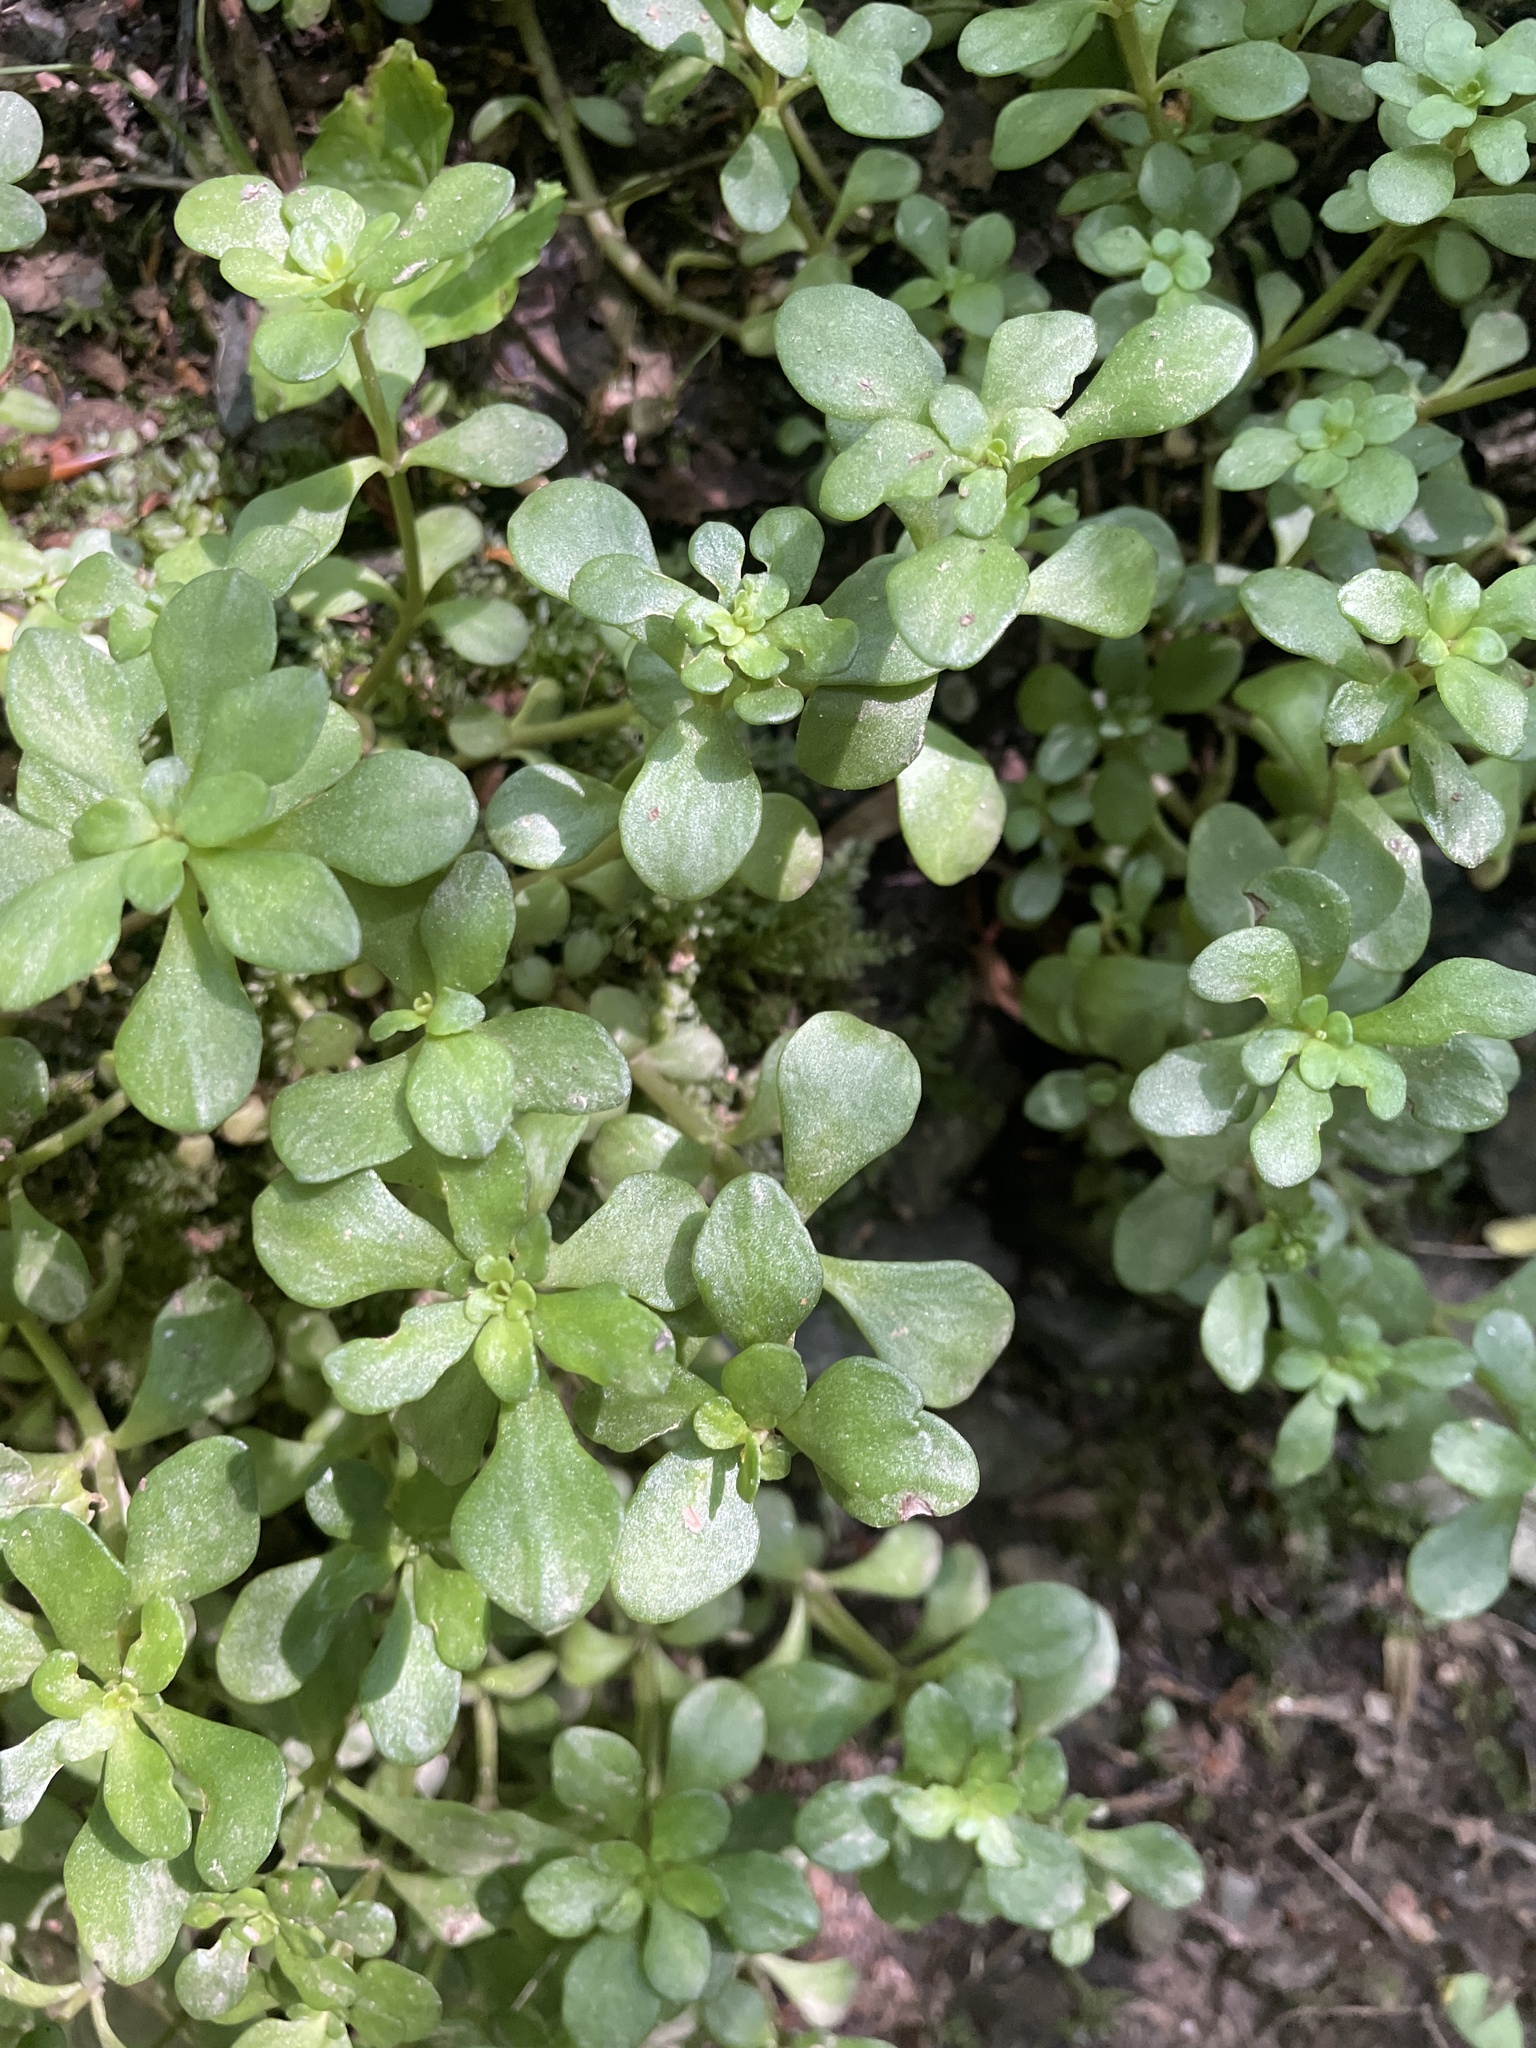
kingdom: Plantae
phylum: Tracheophyta
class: Magnoliopsida
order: Saxifragales
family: Crassulaceae
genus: Sedum
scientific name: Sedum ternatum
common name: Wild stonecrop
